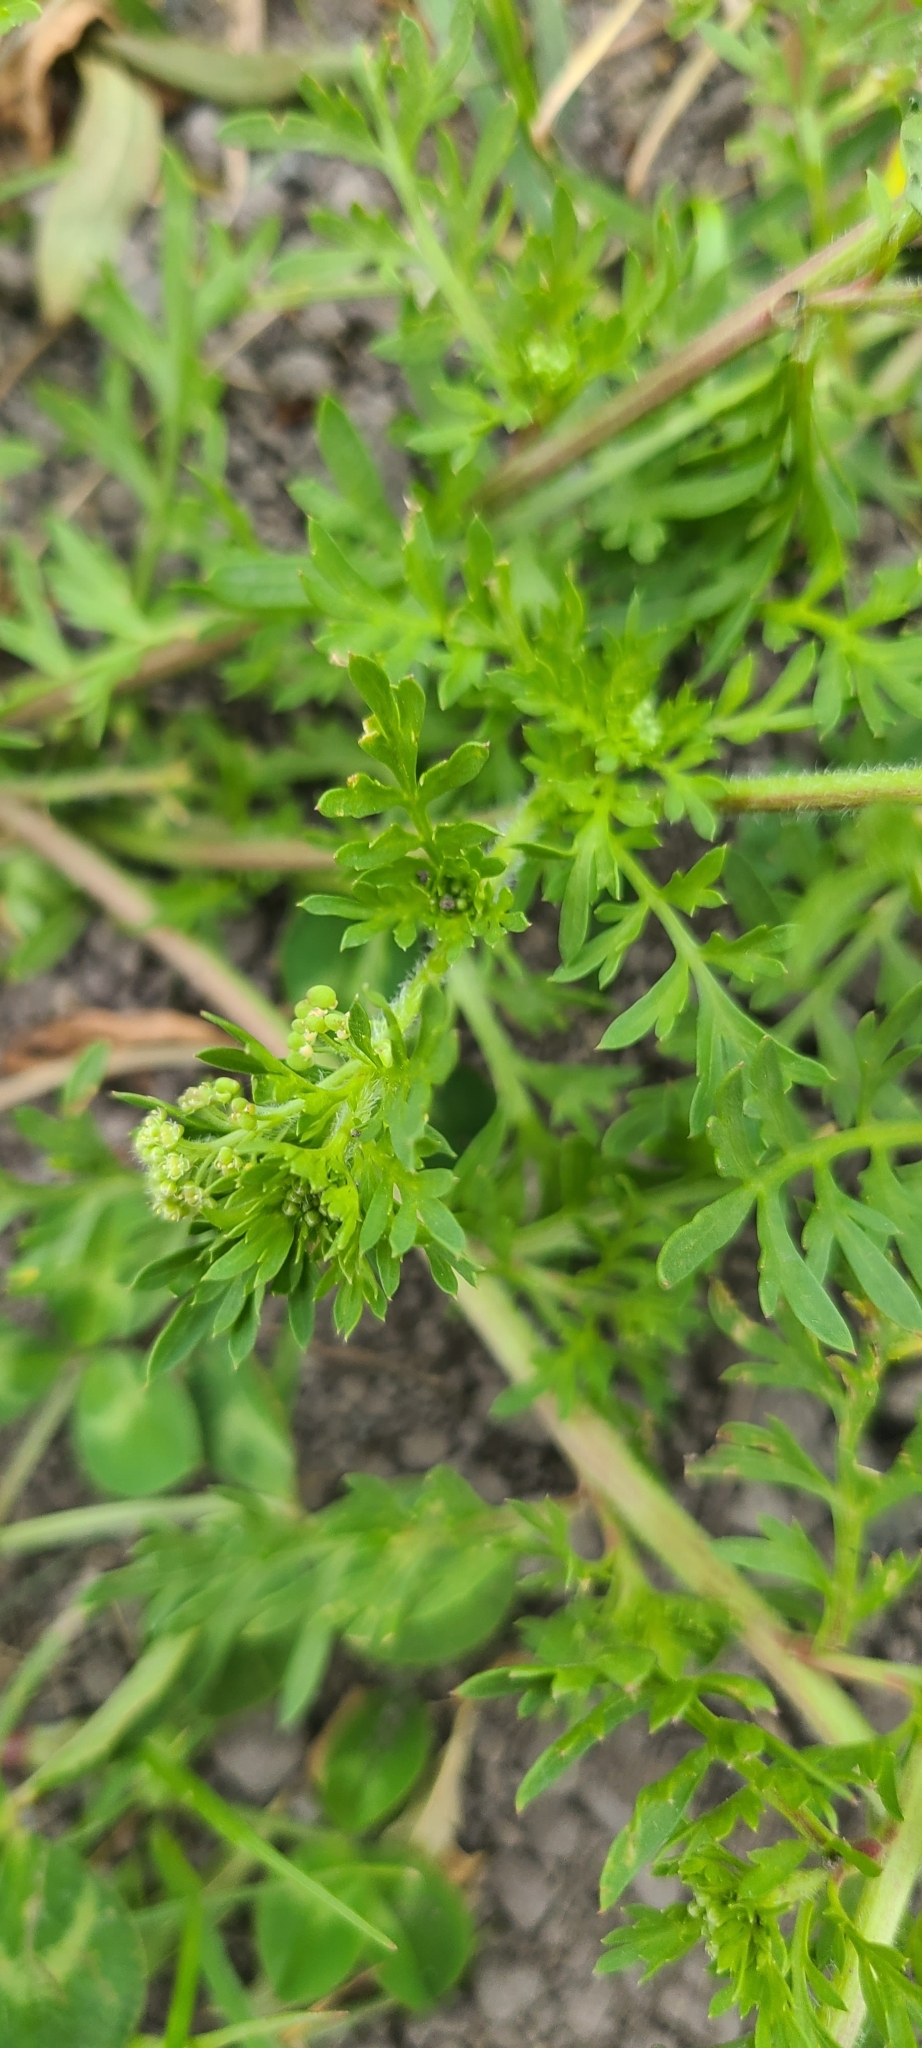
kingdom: Plantae
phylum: Tracheophyta
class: Magnoliopsida
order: Brassicales
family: Brassicaceae
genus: Lepidium
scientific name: Lepidium didymum
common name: Lesser swinecress
